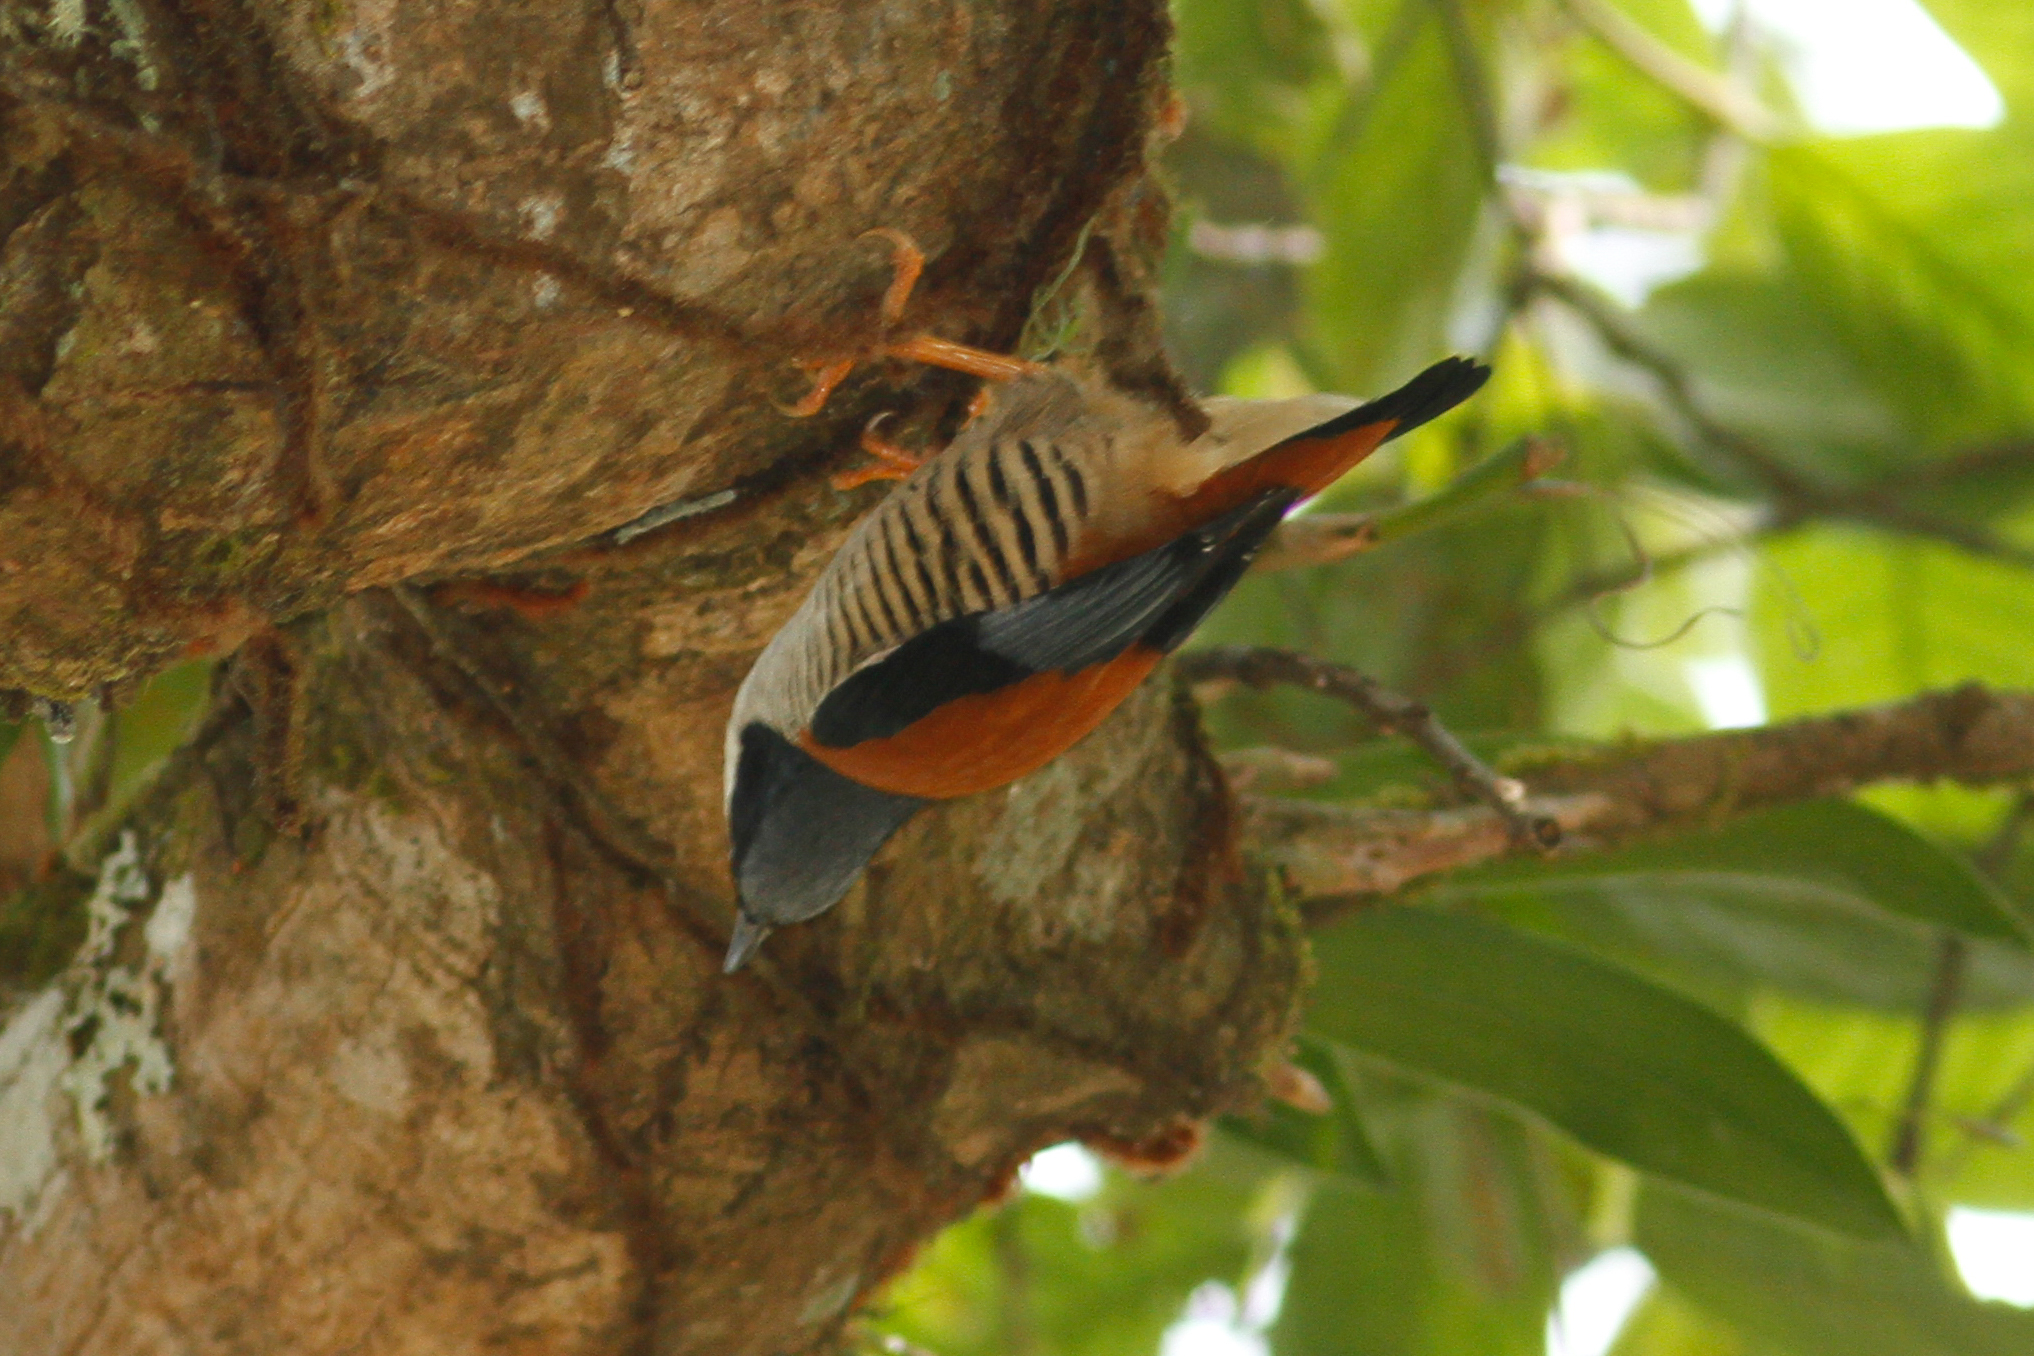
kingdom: Animalia
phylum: Chordata
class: Aves
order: Passeriformes
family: Leiothrichidae
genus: Cutia
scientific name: Cutia nipalensis
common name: Himalayan cutia
